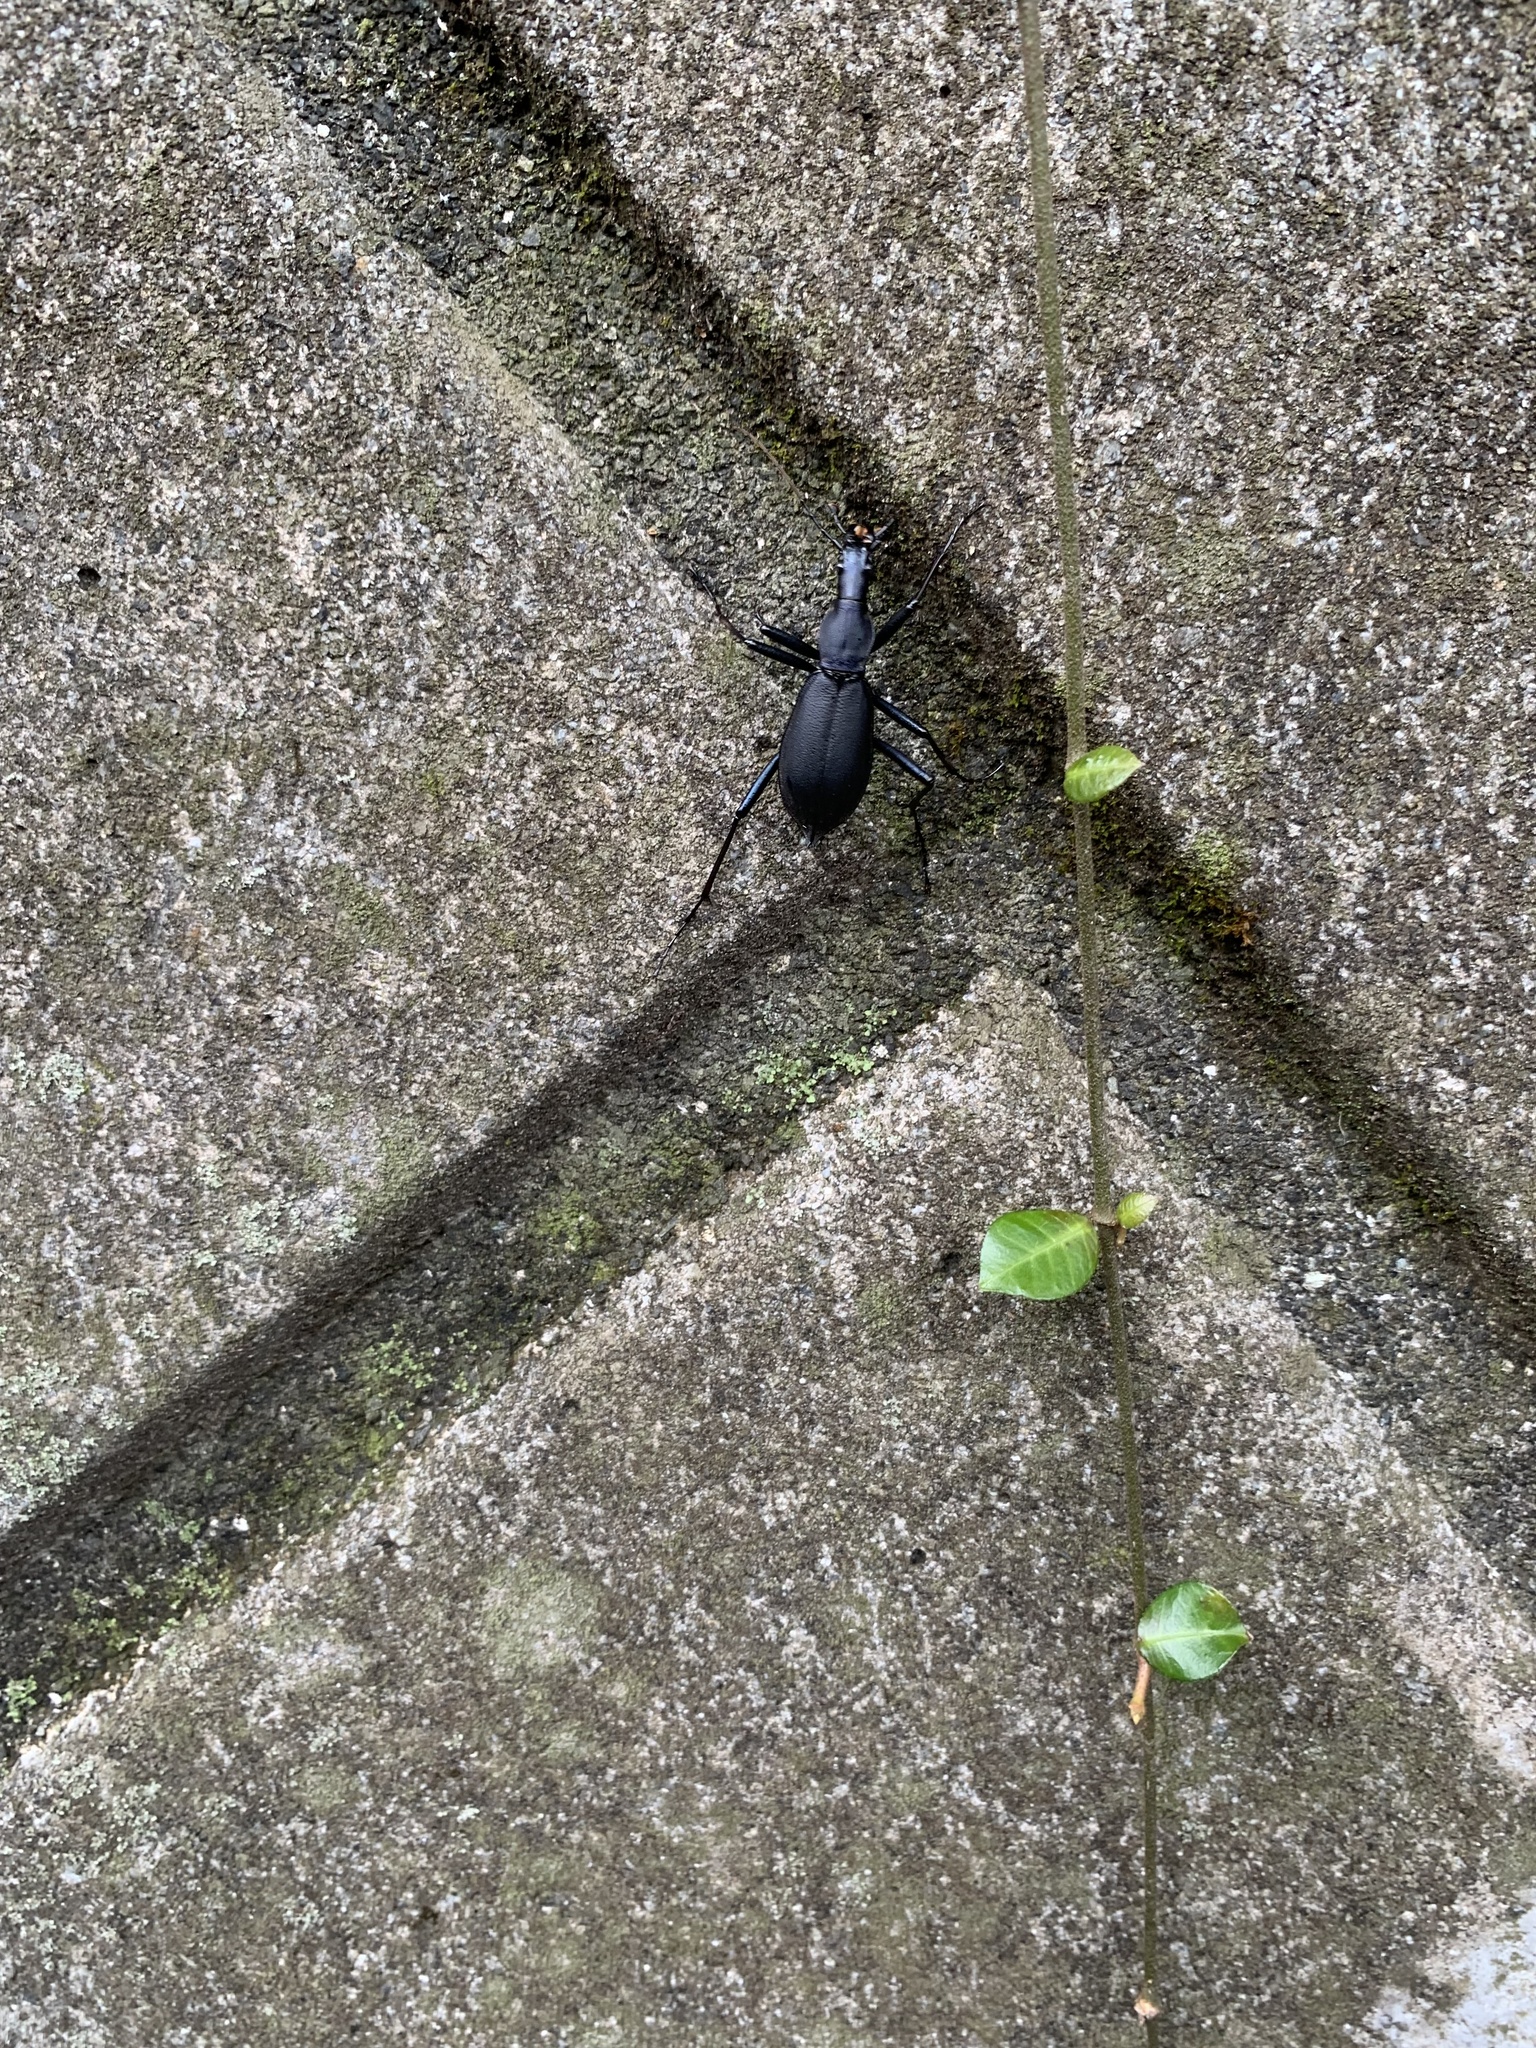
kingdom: Animalia
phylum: Arthropoda
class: Insecta
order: Coleoptera
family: Carabidae
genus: Carabus
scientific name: Carabus blaptoides
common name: Snail-eating beetle
